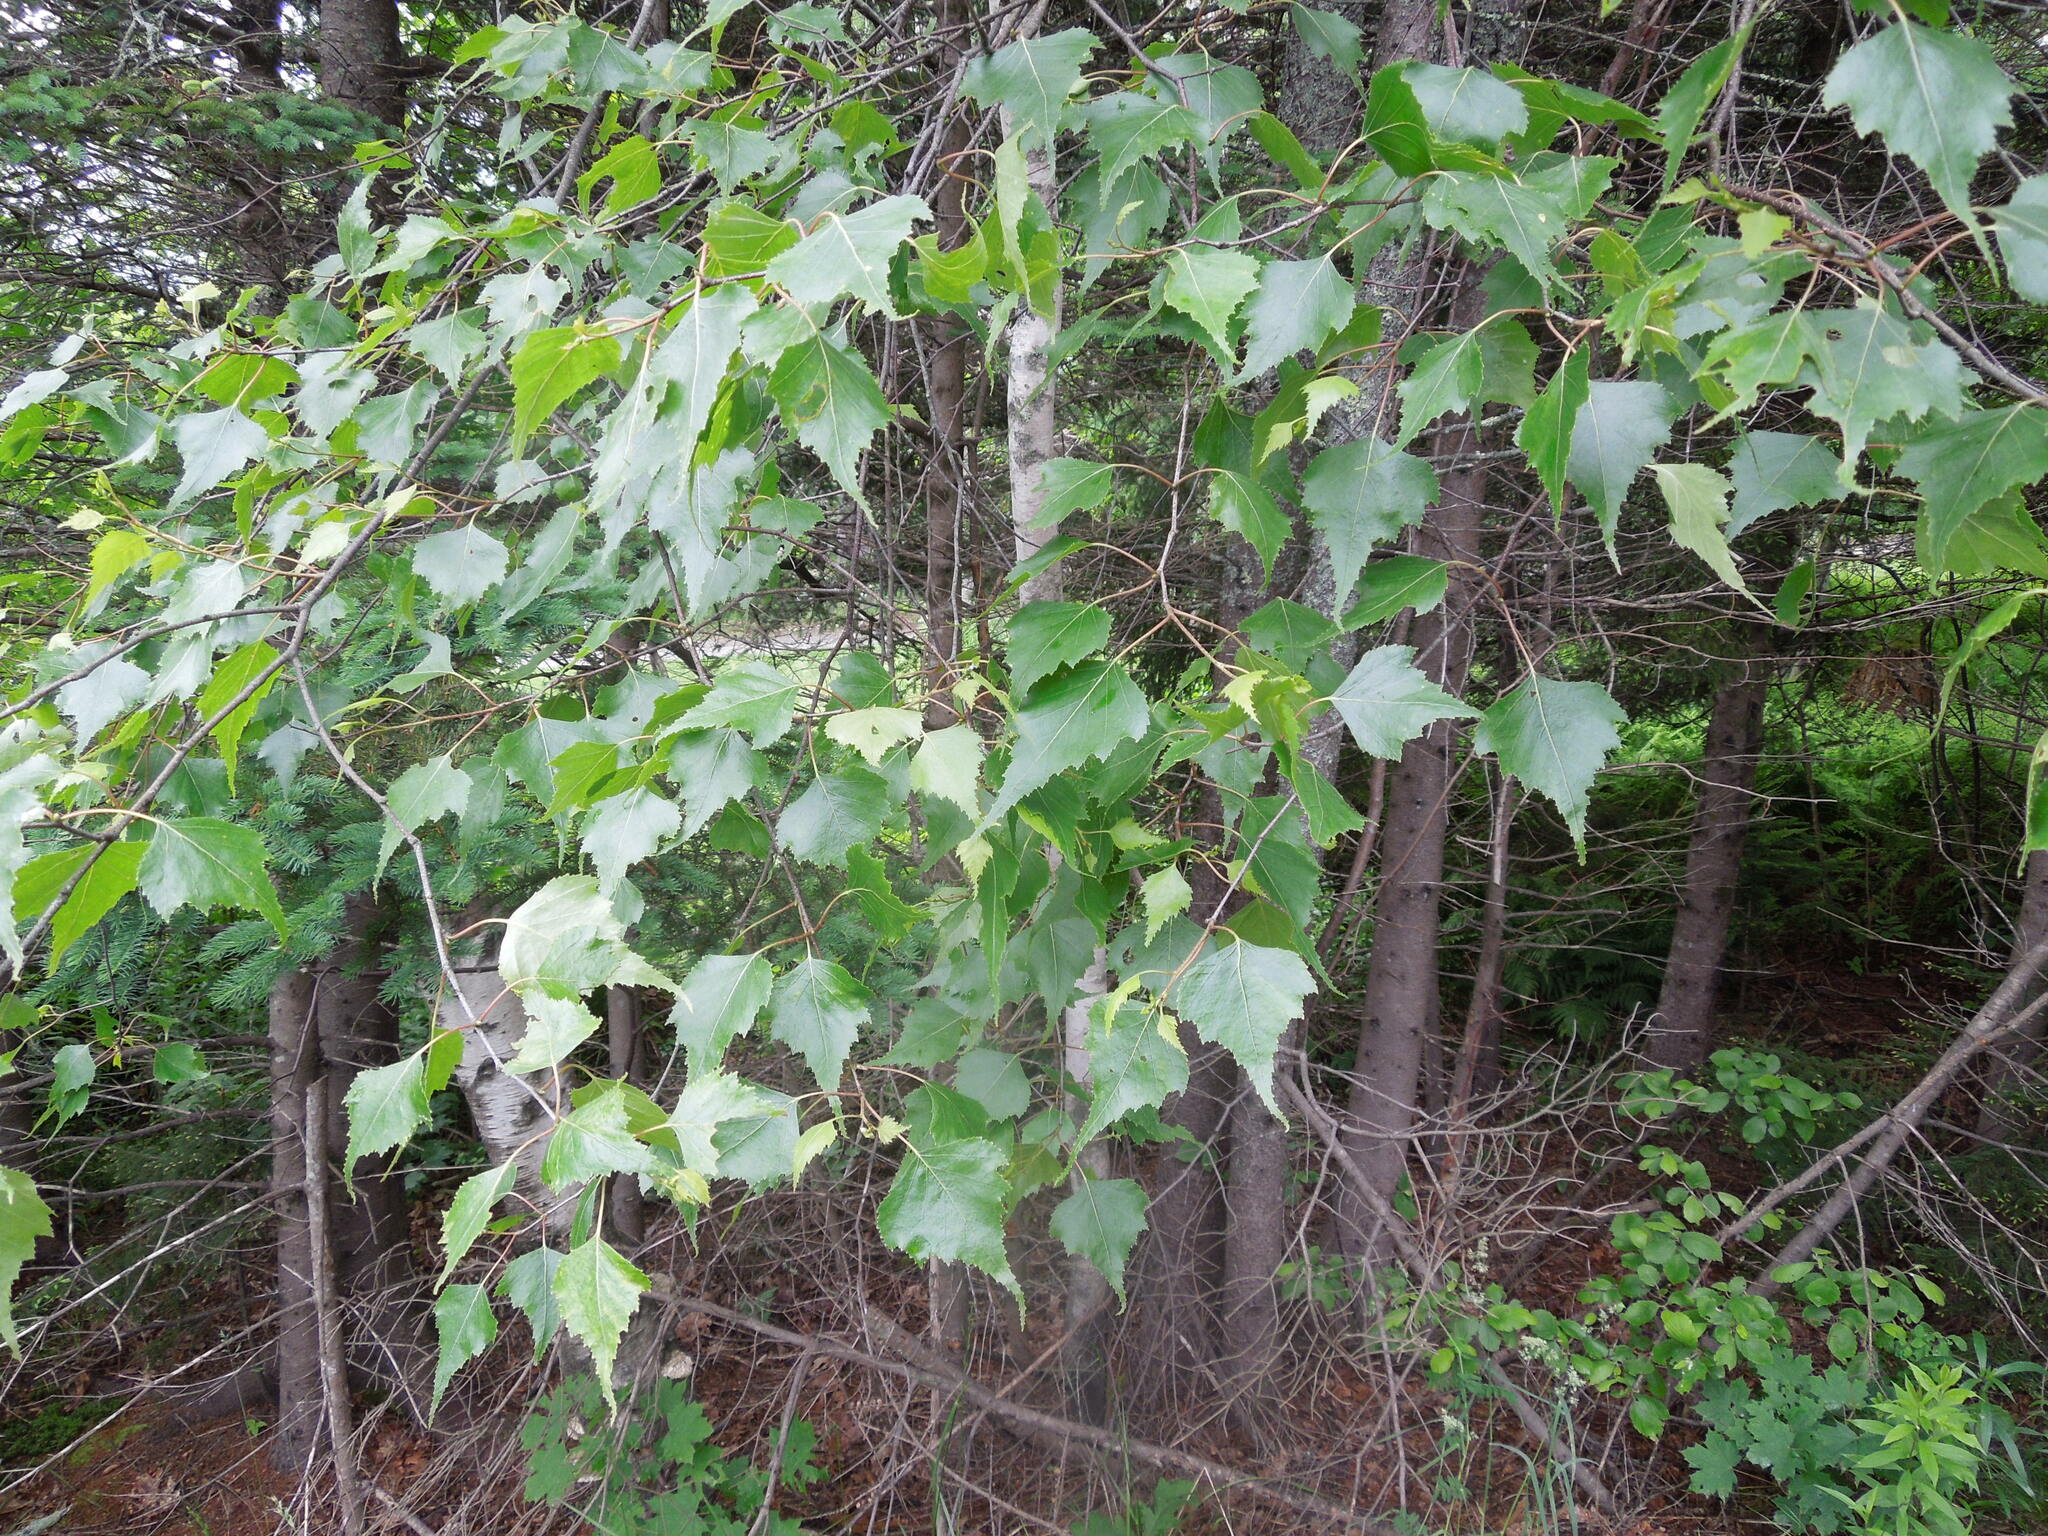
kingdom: Plantae
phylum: Tracheophyta
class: Magnoliopsida
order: Fagales
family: Betulaceae
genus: Betula
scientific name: Betula populifolia
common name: Fire birch
